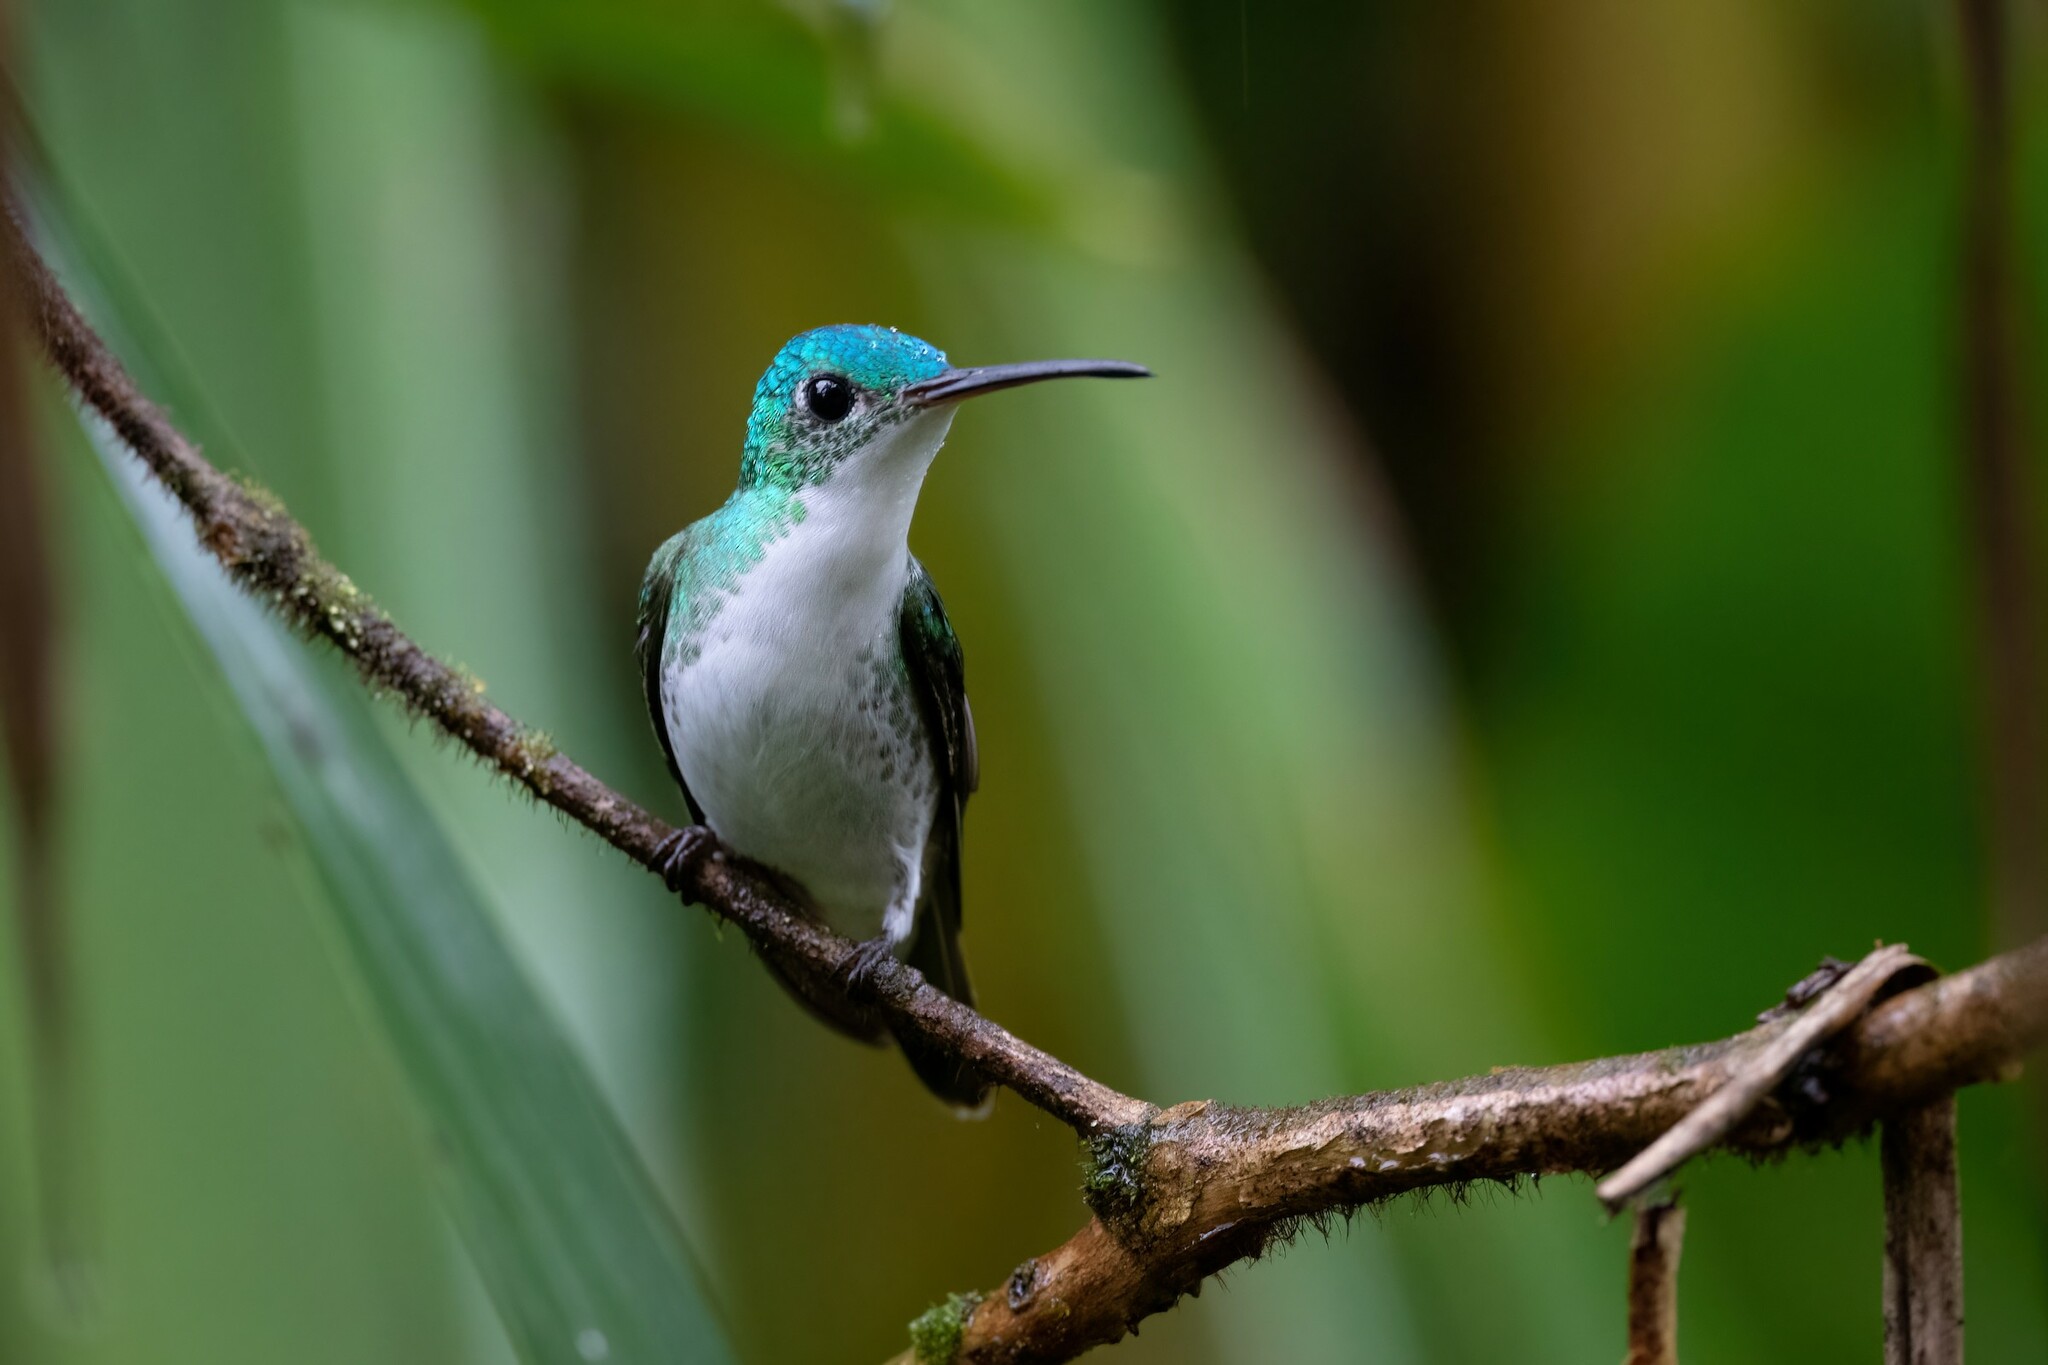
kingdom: Animalia
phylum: Chordata
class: Aves
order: Apodiformes
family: Trochilidae
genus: Uranomitra
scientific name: Uranomitra franciae
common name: Andean emerald
